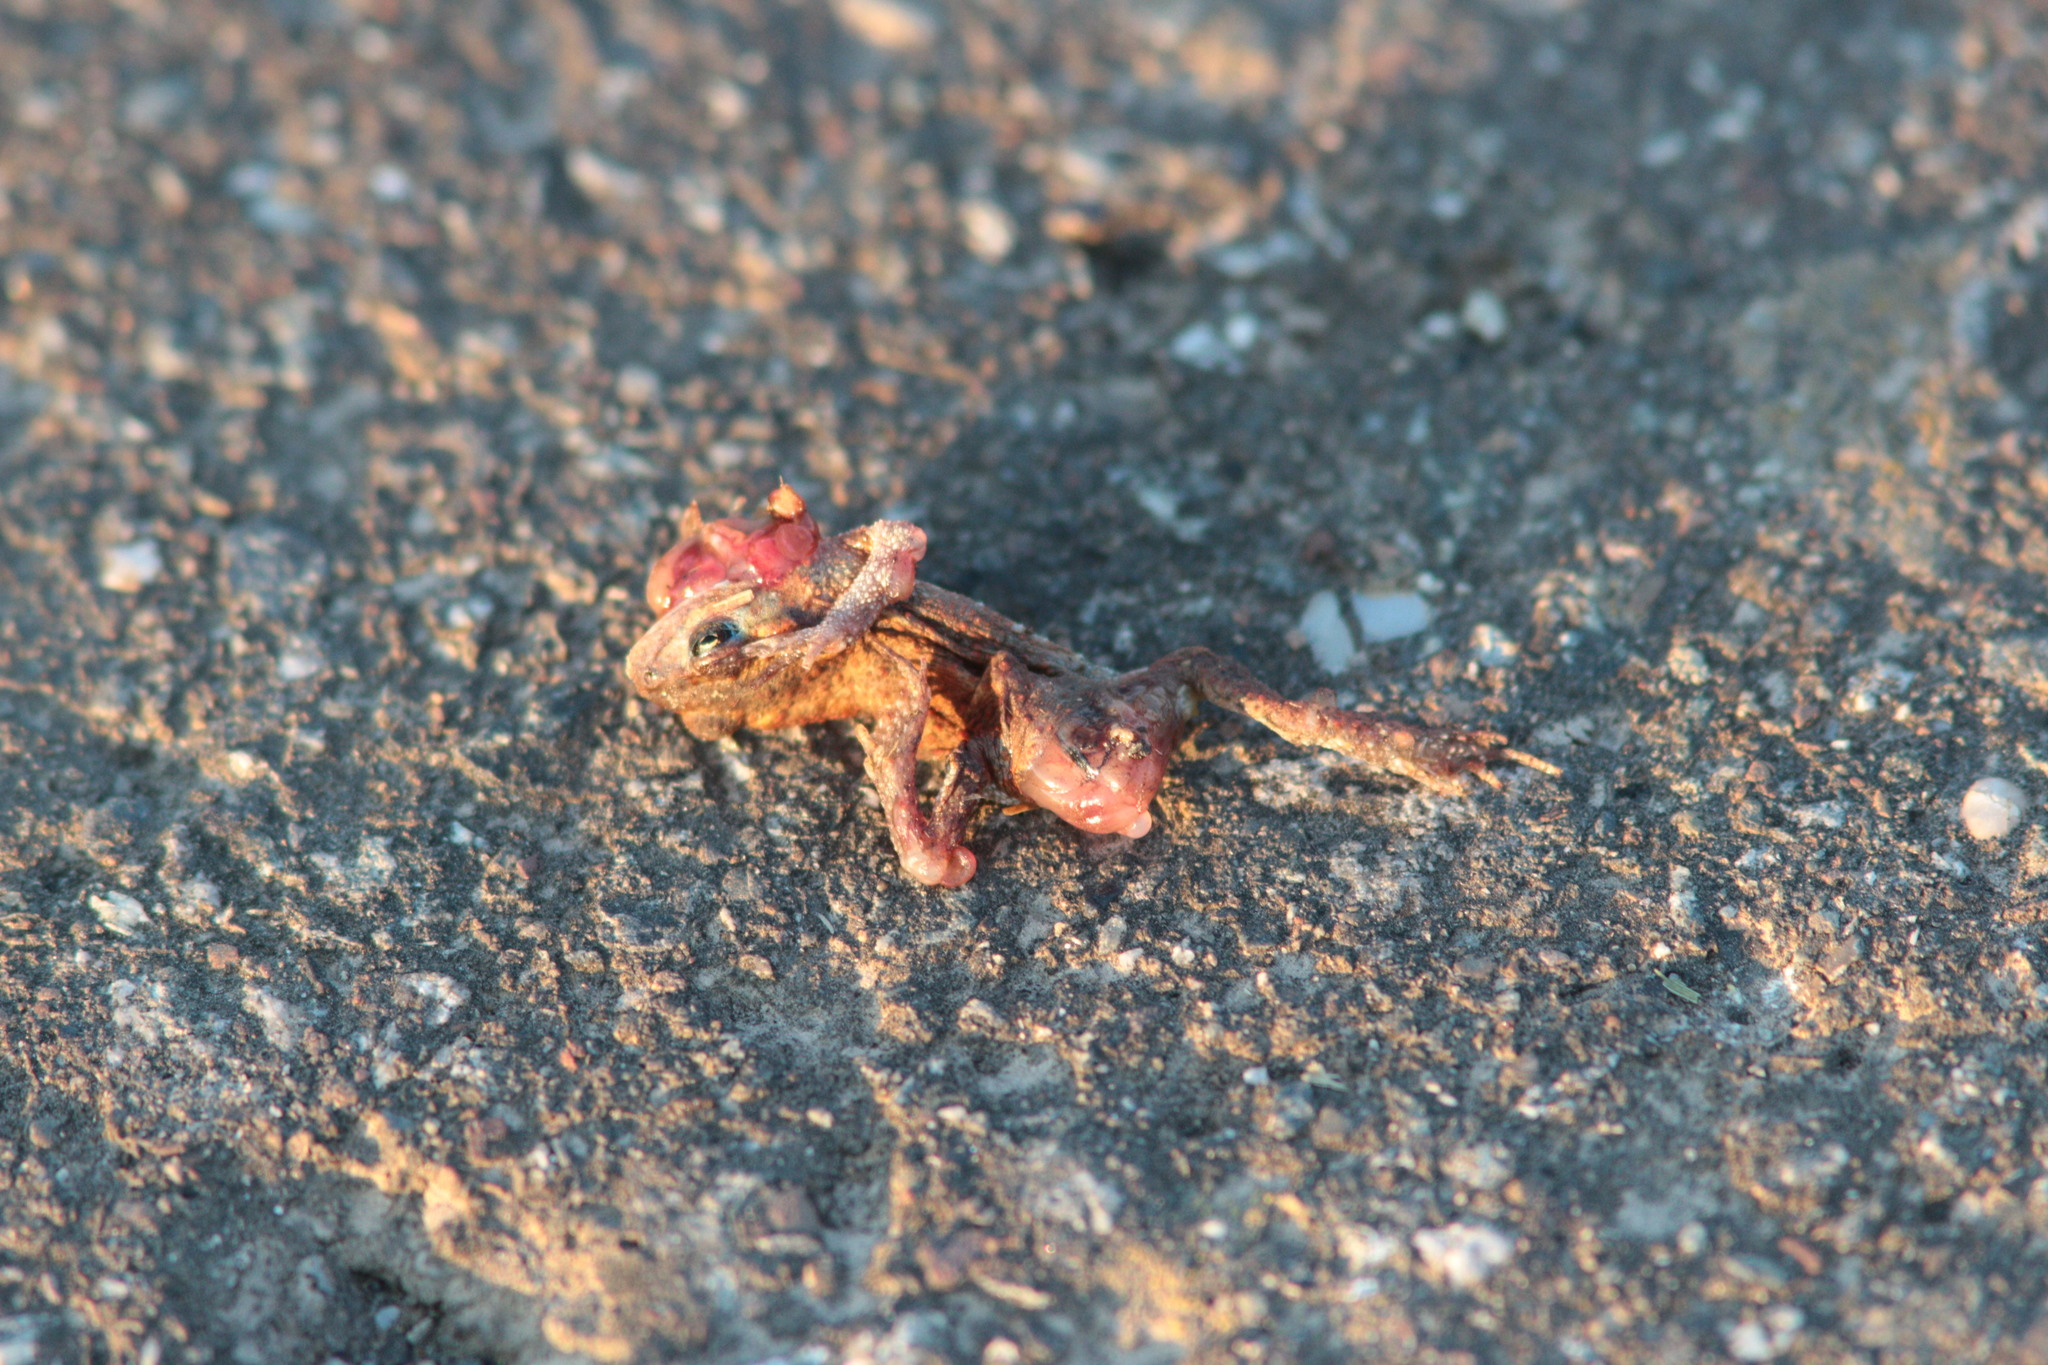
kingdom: Animalia
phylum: Chordata
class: Amphibia
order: Anura
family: Bufonidae
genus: Bufo
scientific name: Bufo bufo
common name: Common toad
